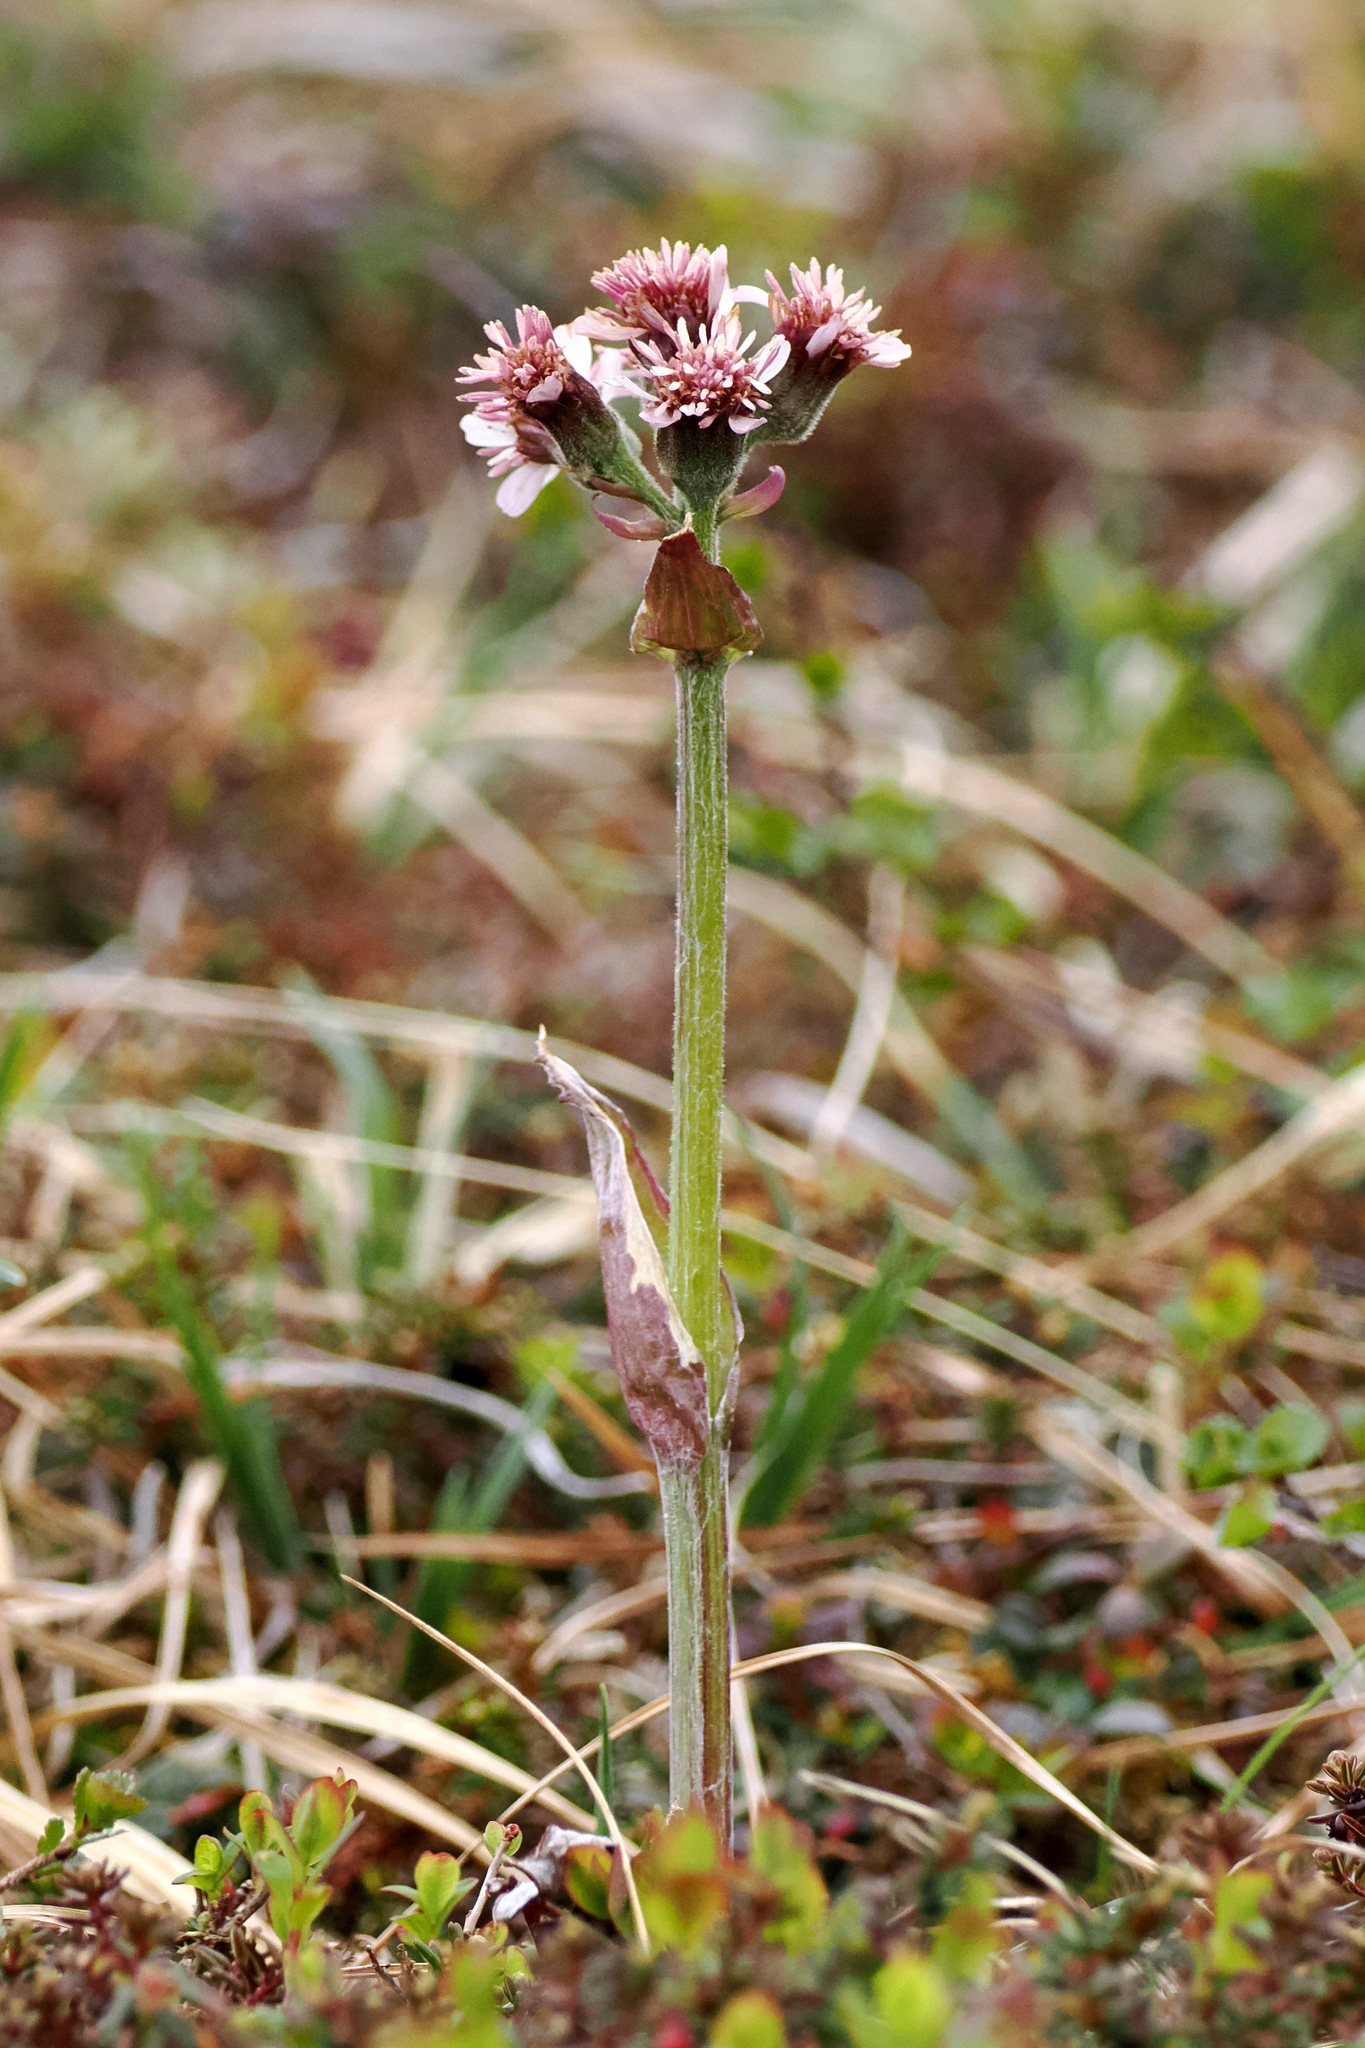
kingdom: Plantae
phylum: Tracheophyta
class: Magnoliopsida
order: Asterales
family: Asteraceae
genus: Petasites
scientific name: Petasites frigidus
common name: Arctic butterbur
